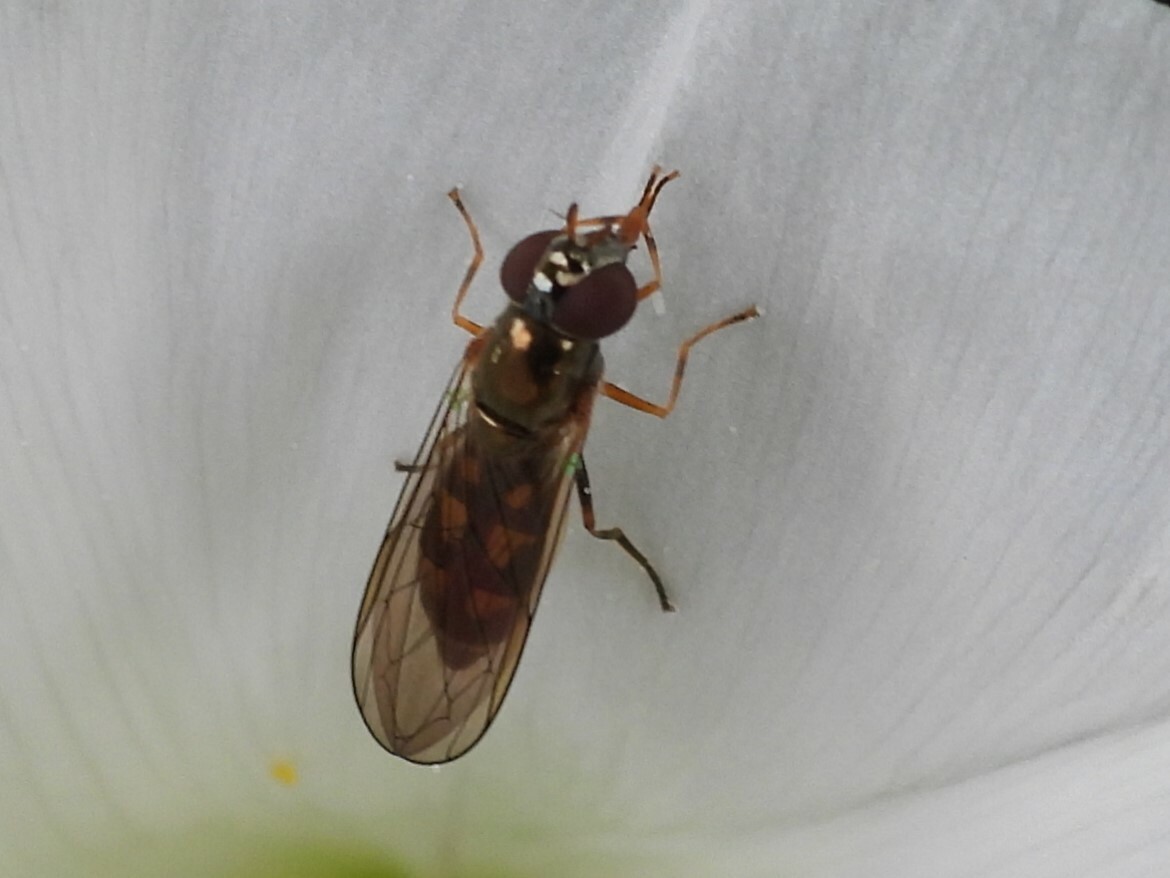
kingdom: Animalia
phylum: Arthropoda
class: Insecta
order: Diptera
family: Syrphidae
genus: Melanostoma
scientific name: Melanostoma scalare
